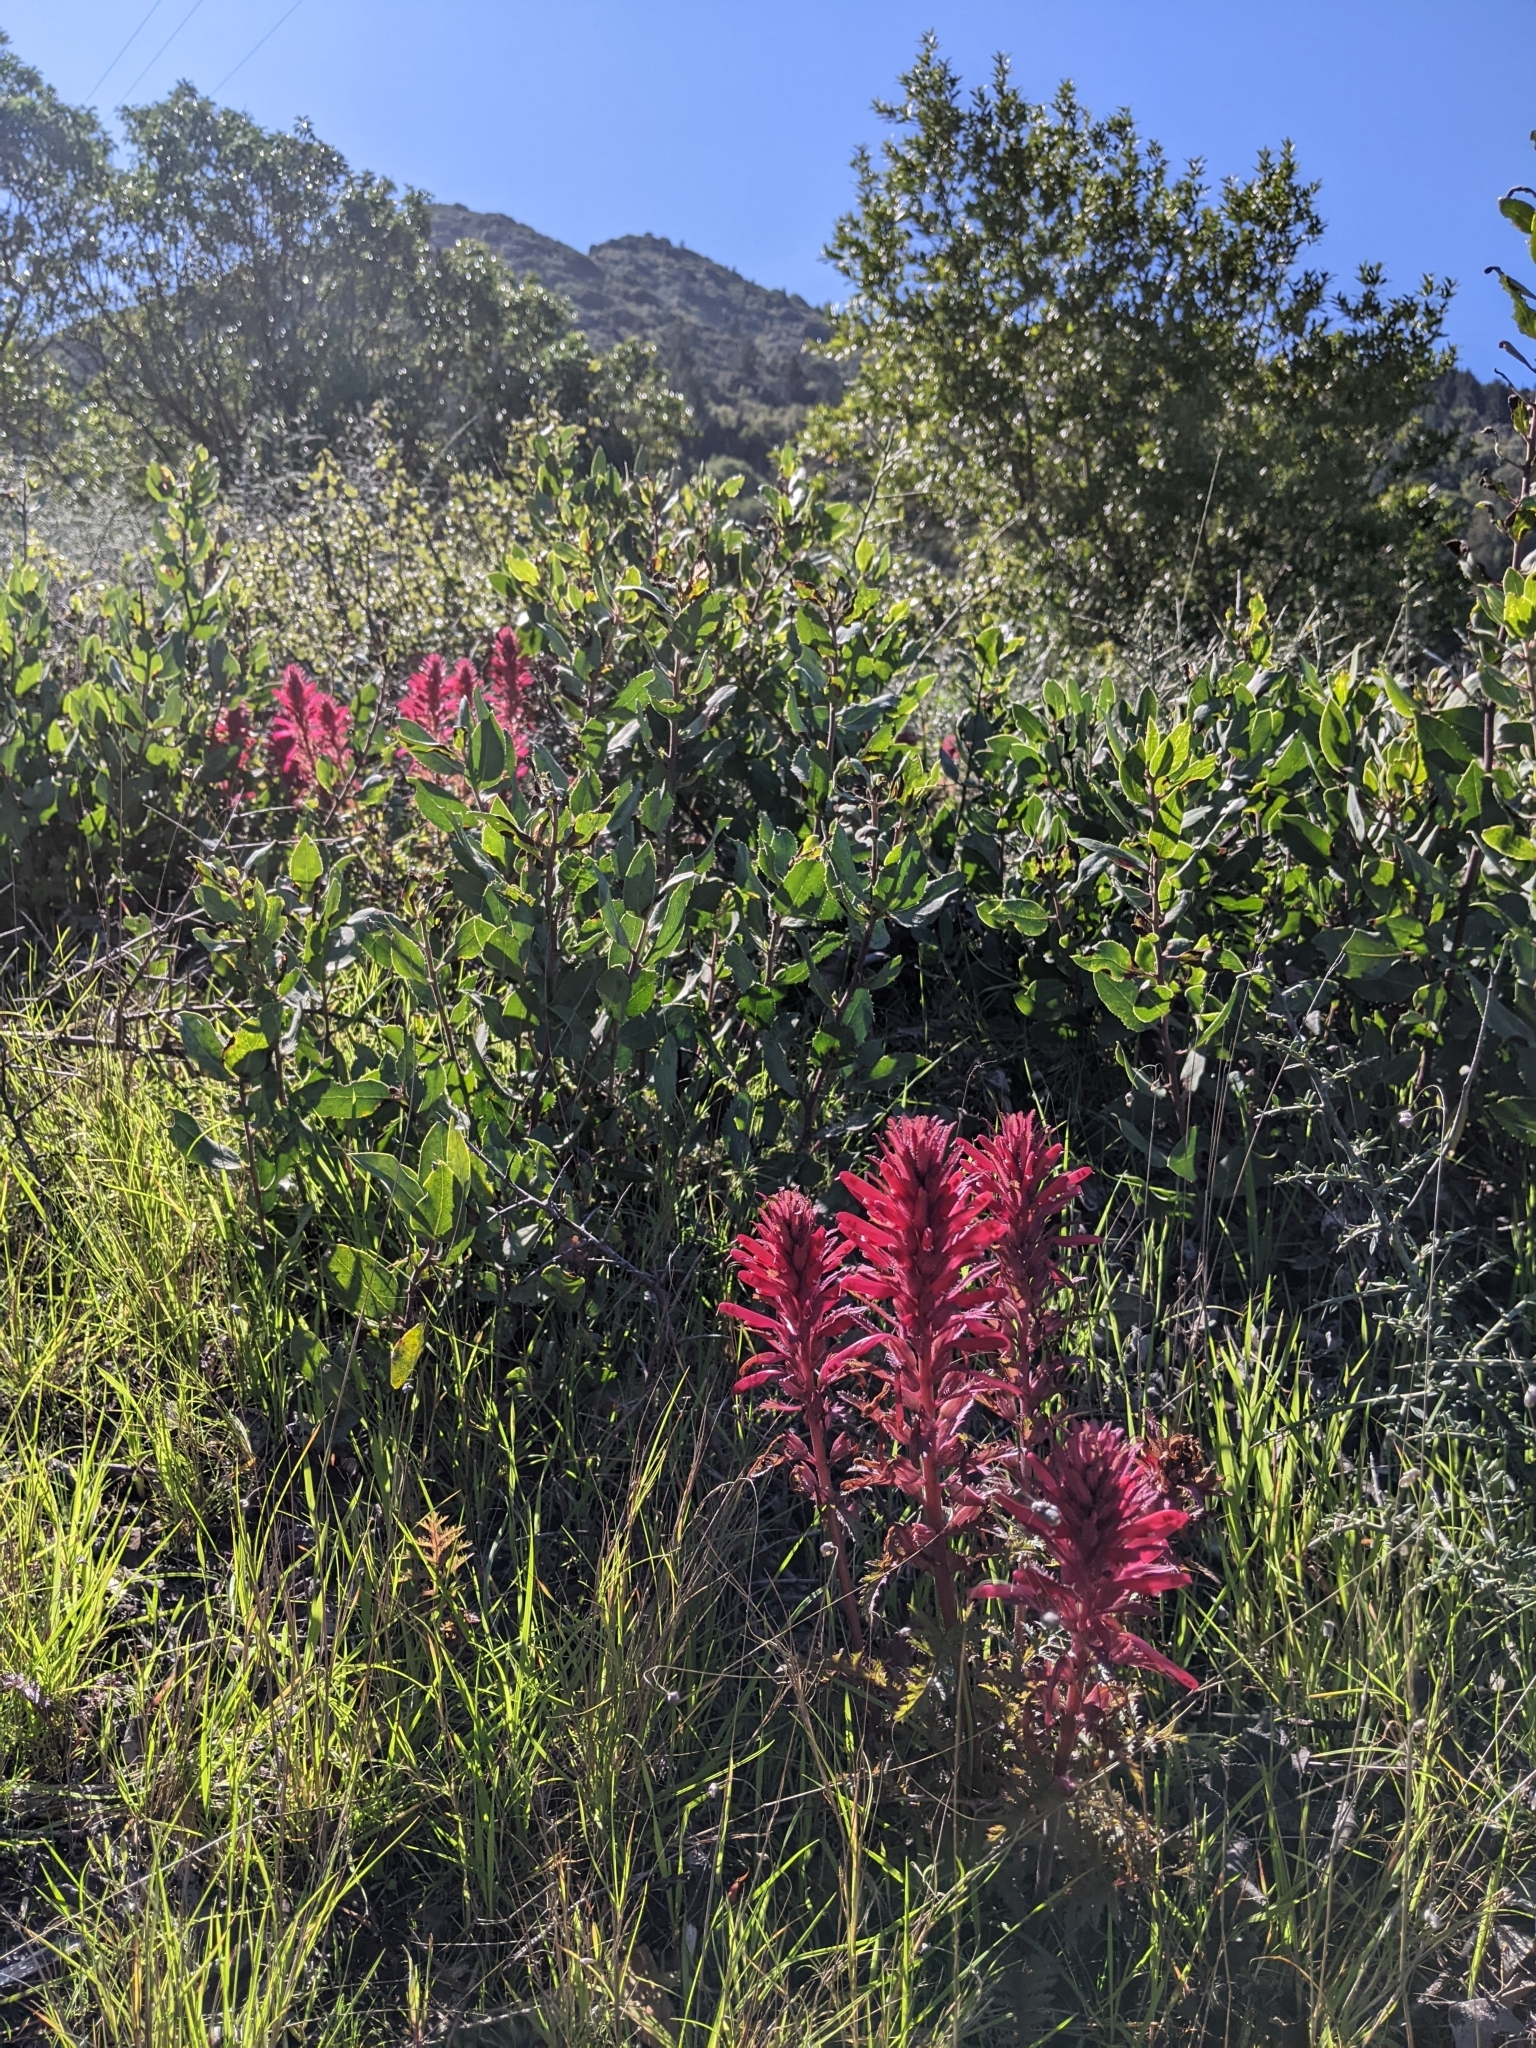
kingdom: Plantae
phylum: Tracheophyta
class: Magnoliopsida
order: Lamiales
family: Orobanchaceae
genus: Pedicularis
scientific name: Pedicularis densiflora
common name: Indian warrior
